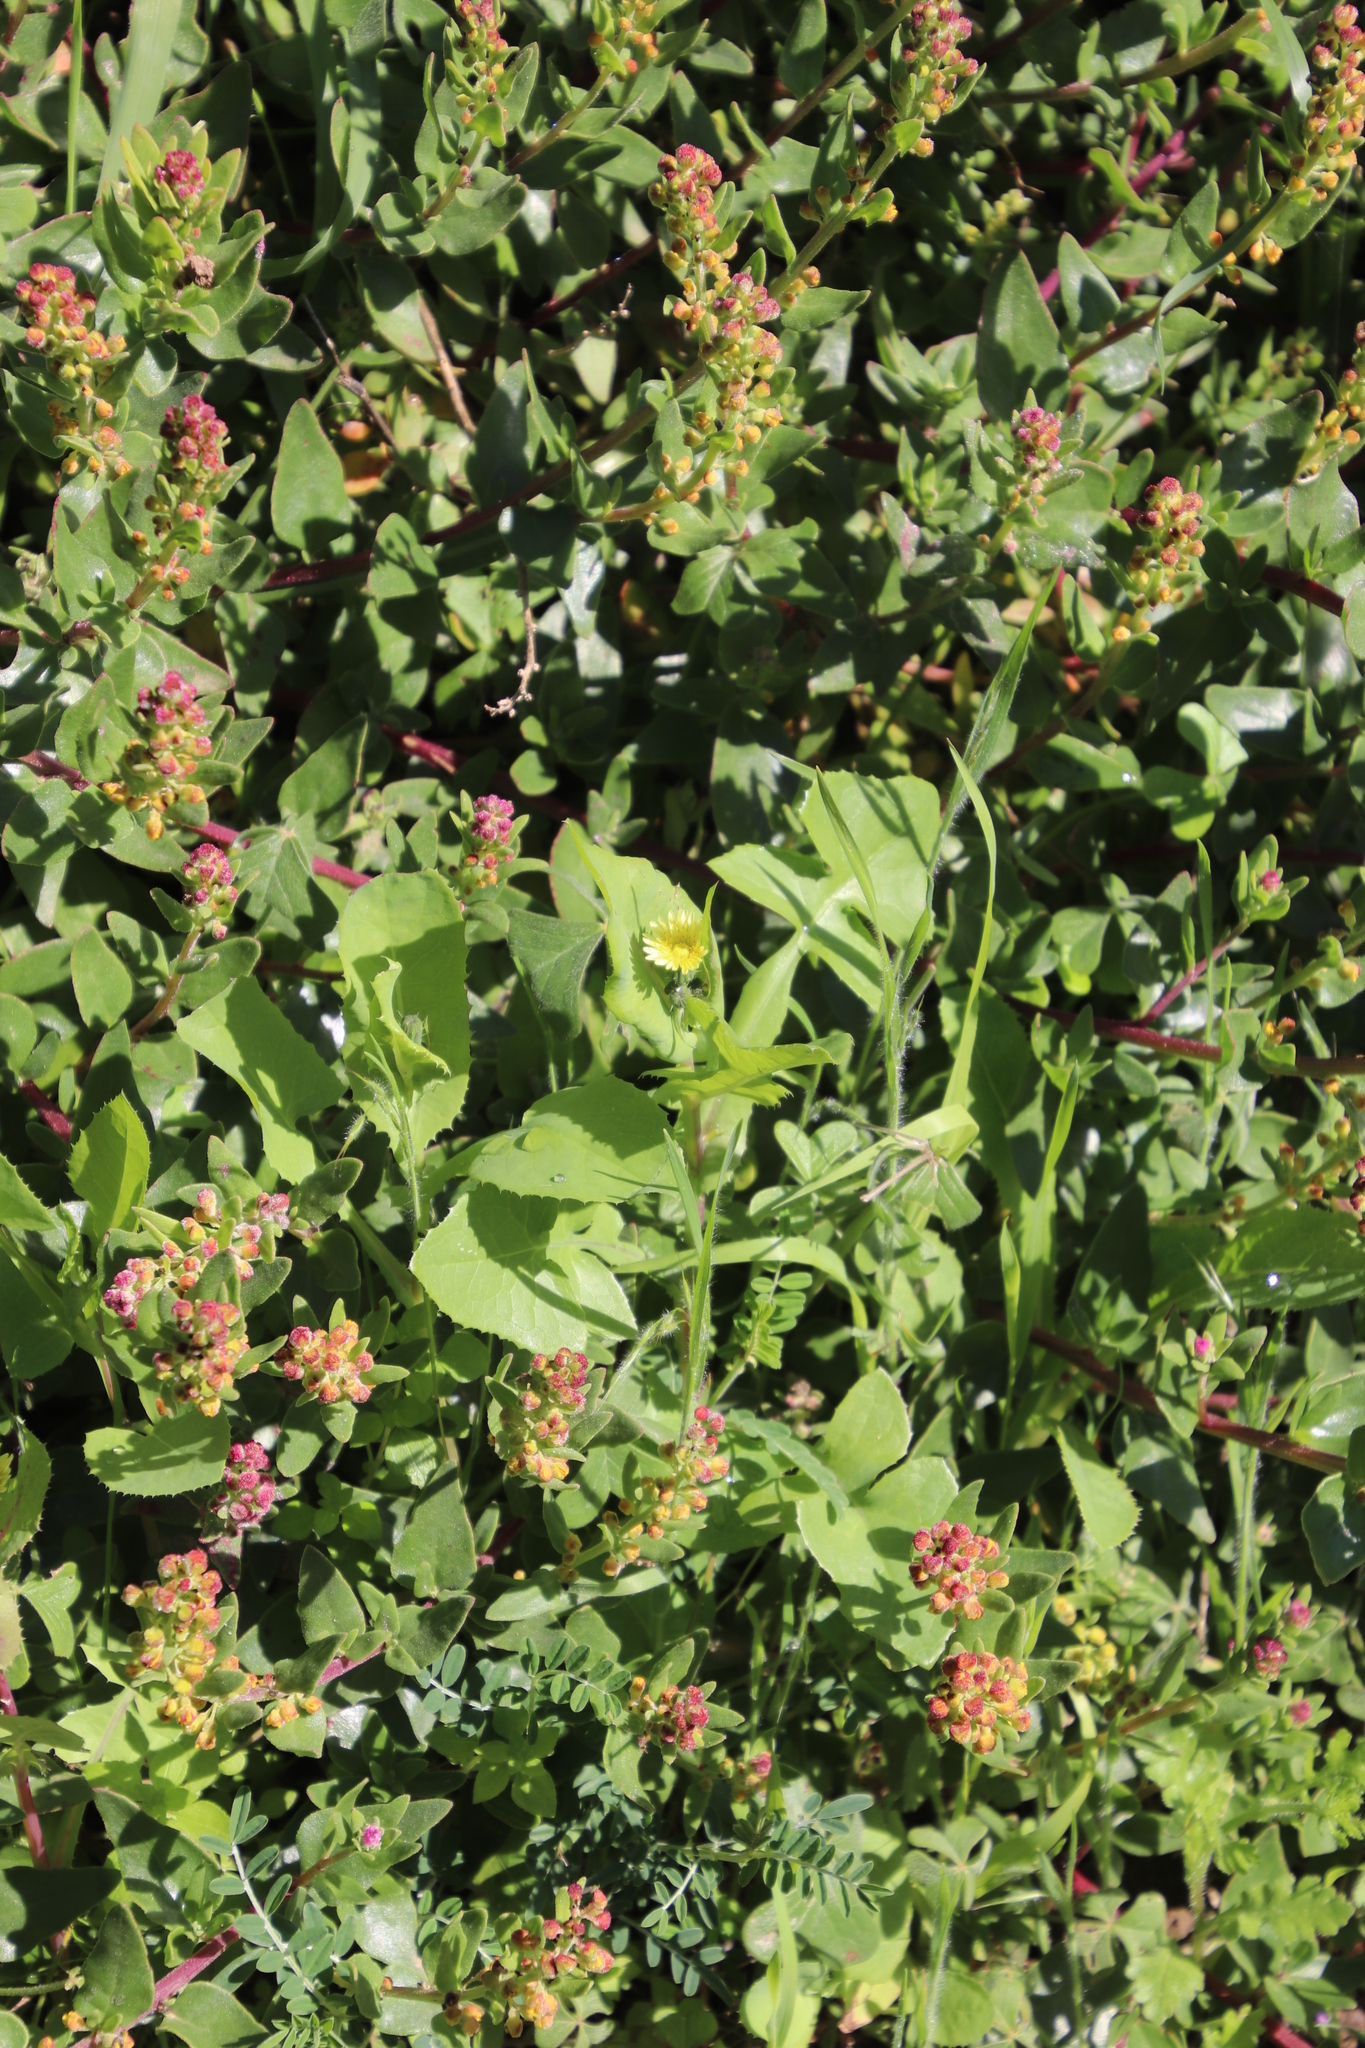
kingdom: Plantae
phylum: Tracheophyta
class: Magnoliopsida
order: Asterales
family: Asteraceae
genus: Sonchus
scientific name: Sonchus oleraceus
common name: Common sowthistle
